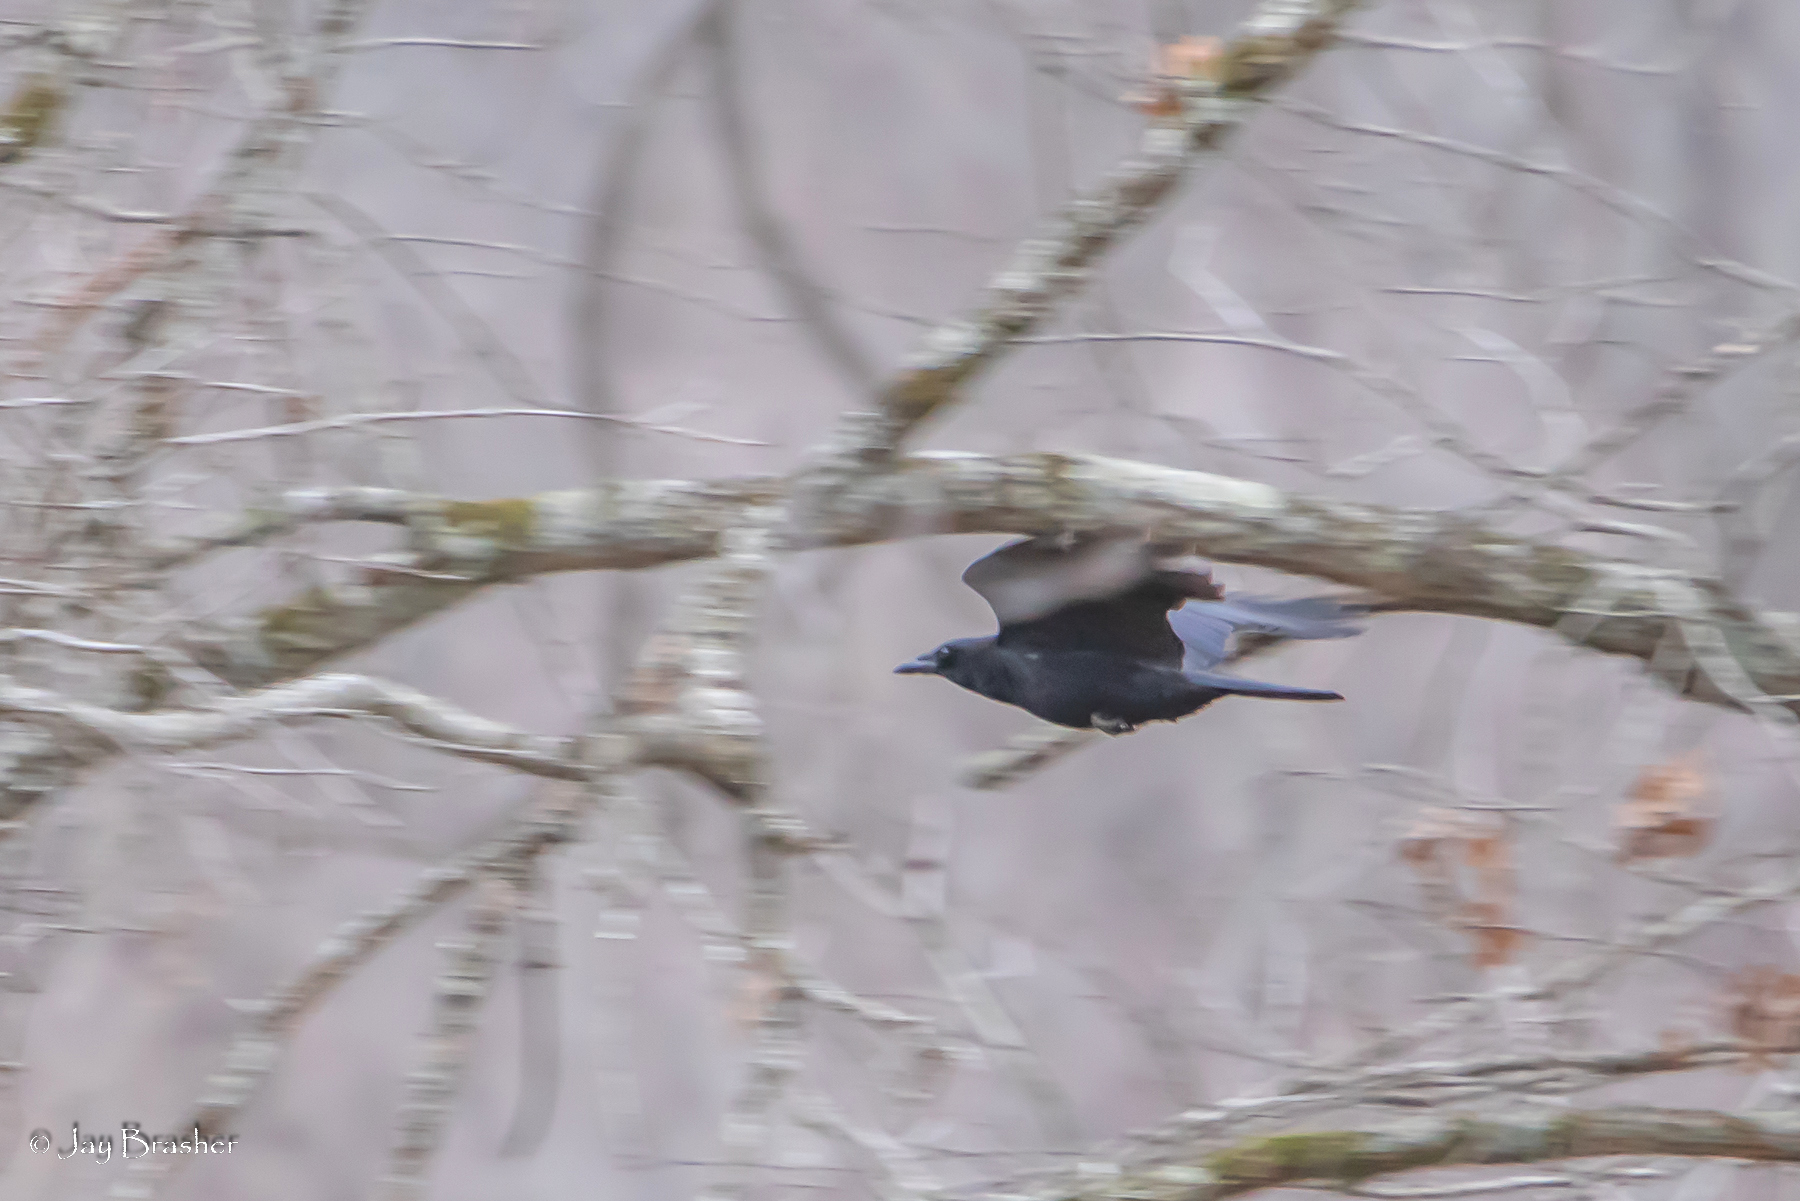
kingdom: Animalia
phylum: Chordata
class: Aves
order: Passeriformes
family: Corvidae
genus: Corvus
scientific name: Corvus brachyrhynchos
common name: American crow
